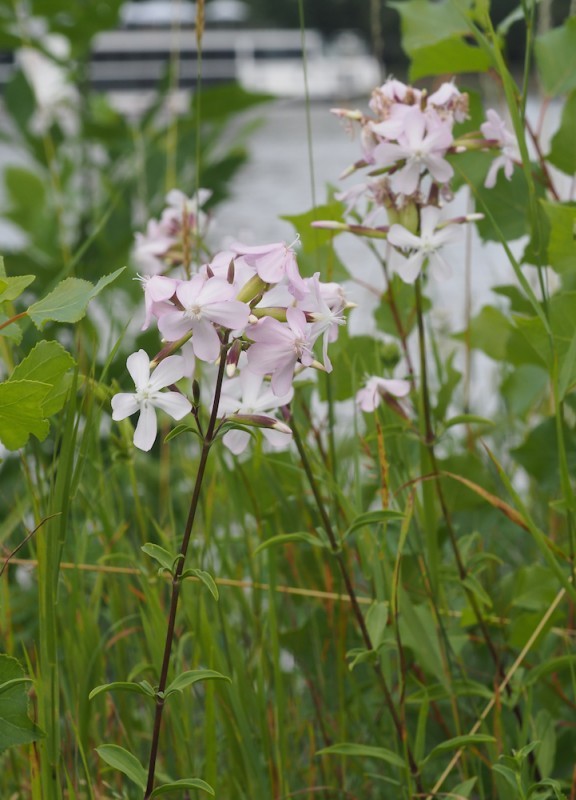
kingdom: Plantae
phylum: Tracheophyta
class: Magnoliopsida
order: Caryophyllales
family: Caryophyllaceae
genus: Saponaria
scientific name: Saponaria officinalis
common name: Soapwort
